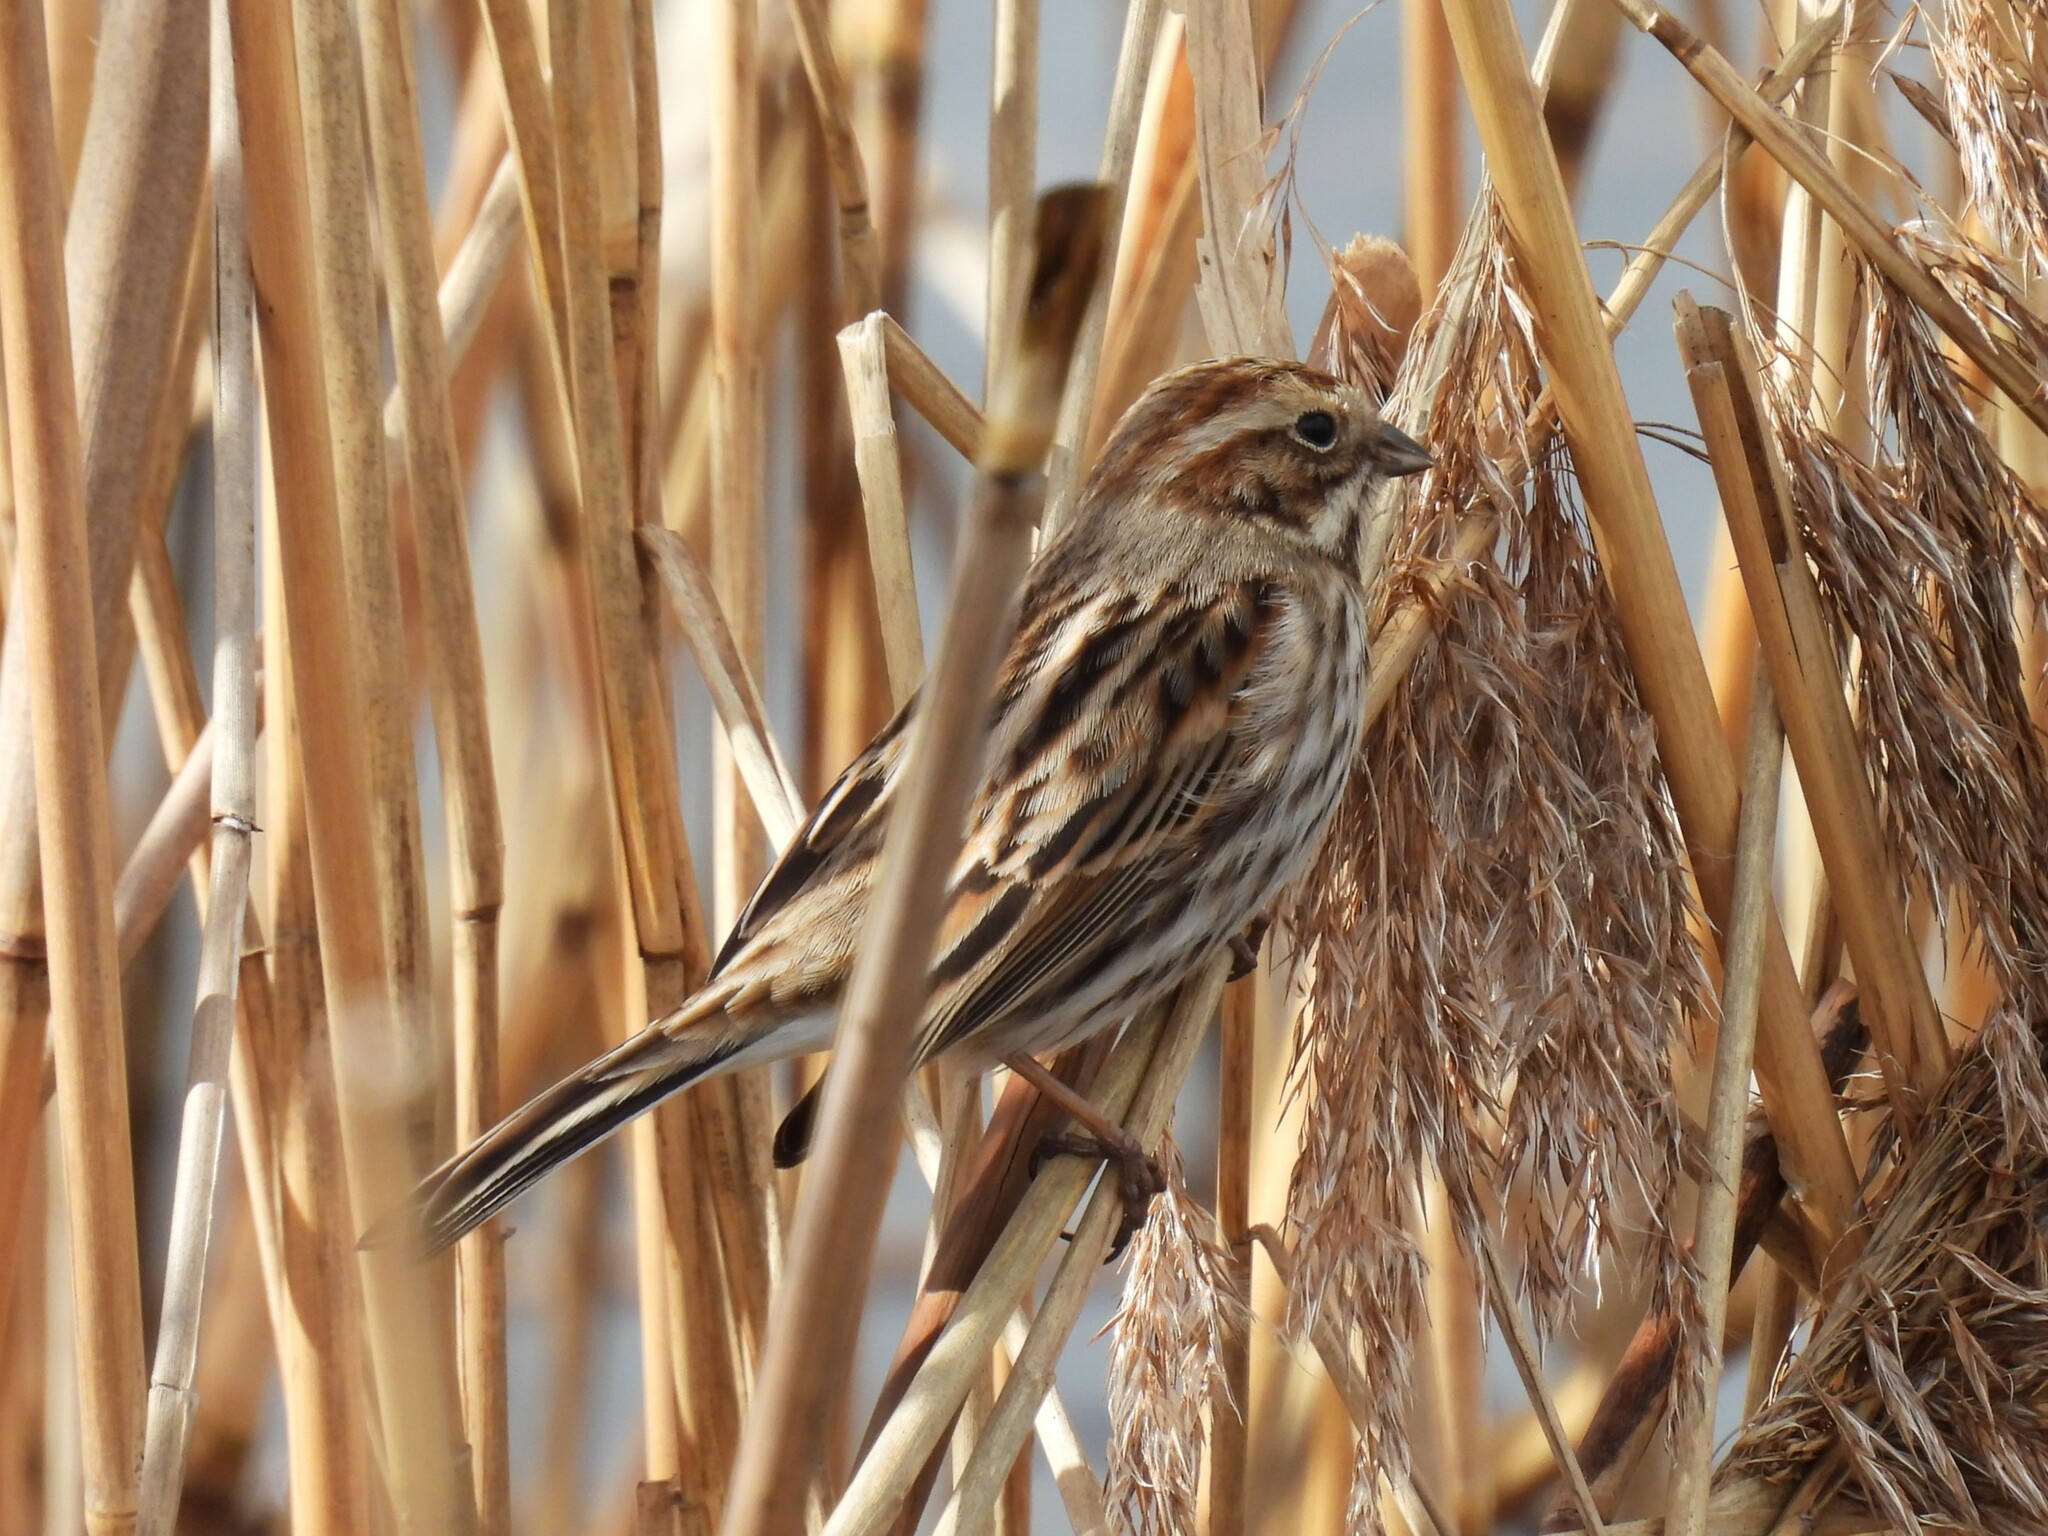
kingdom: Animalia
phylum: Chordata
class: Aves
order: Passeriformes
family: Emberizidae
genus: Emberiza
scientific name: Emberiza schoeniclus
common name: Reed bunting
